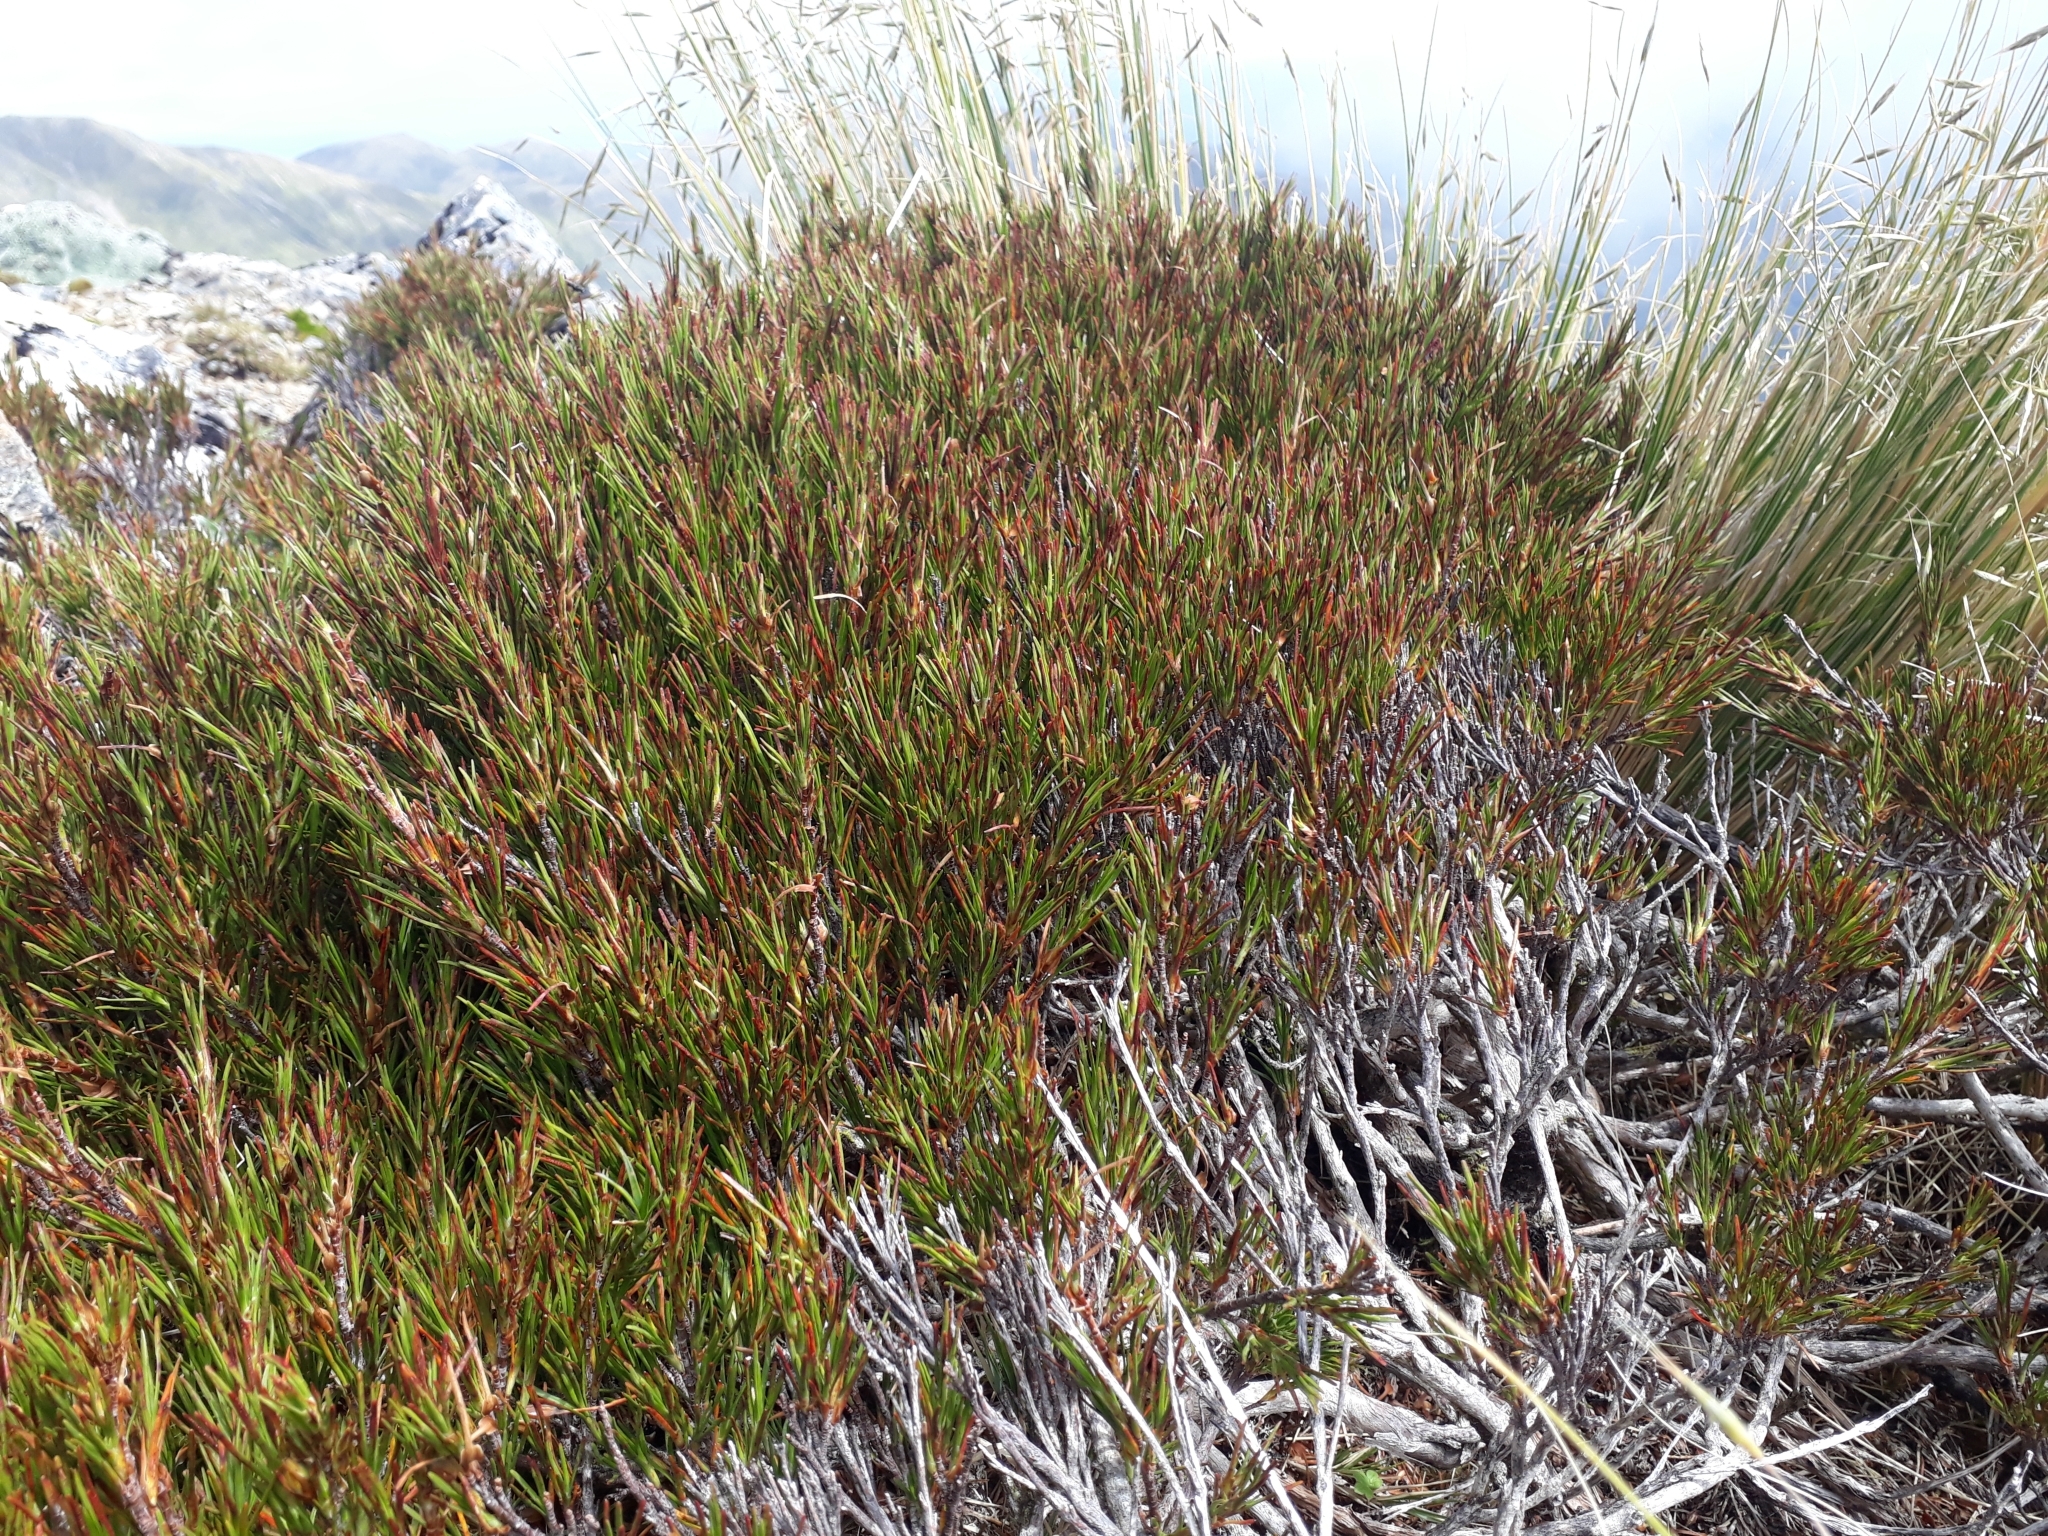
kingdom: Plantae
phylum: Tracheophyta
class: Magnoliopsida
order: Ericales
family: Ericaceae
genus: Dracophyllum
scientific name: Dracophyllum rosmarinifolium
